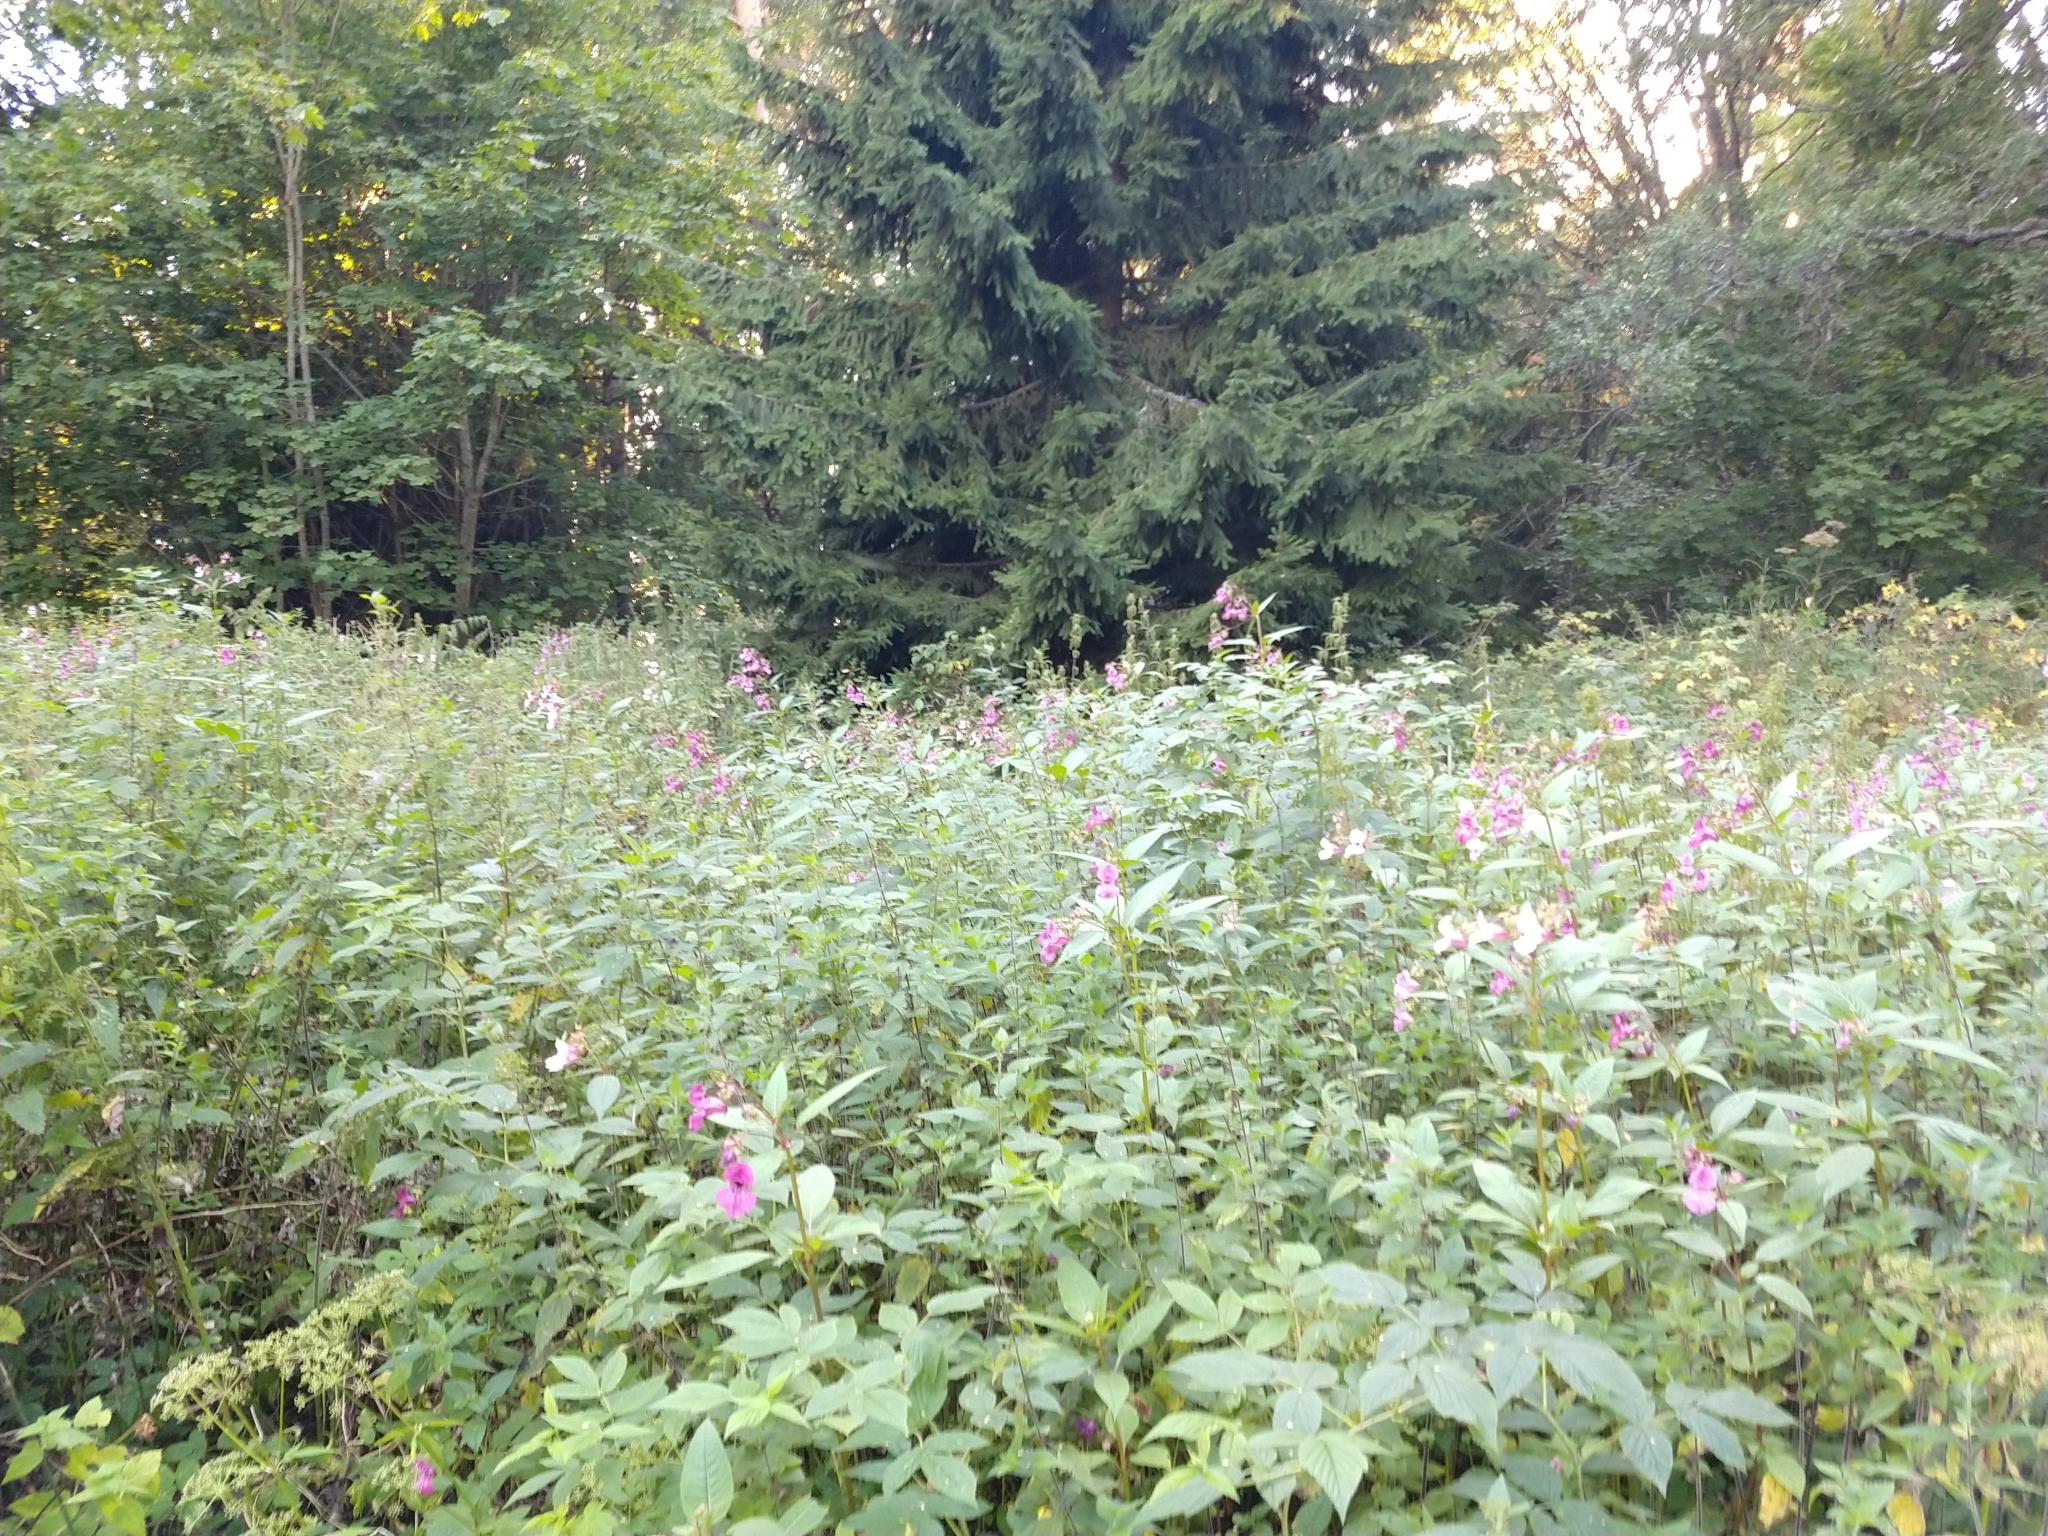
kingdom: Plantae
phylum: Tracheophyta
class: Magnoliopsida
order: Ericales
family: Balsaminaceae
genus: Impatiens
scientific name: Impatiens glandulifera
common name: Himalayan balsam
